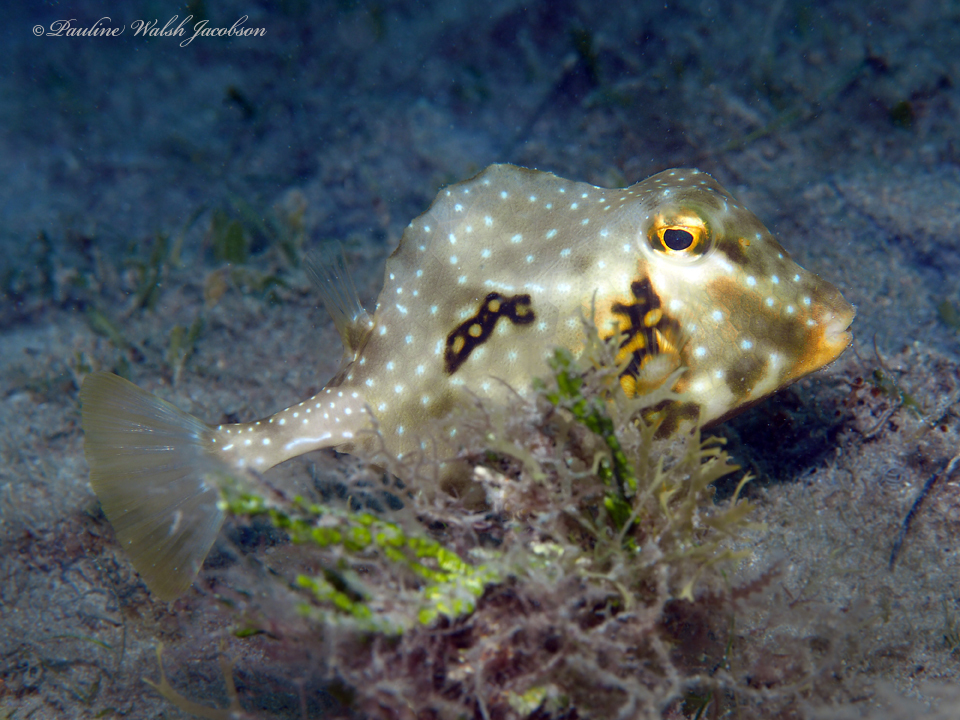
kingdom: Animalia
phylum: Chordata
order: Tetraodontiformes
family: Ostraciidae
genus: Lactophrys
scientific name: Lactophrys trigonus
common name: Buffalo trunkfish
